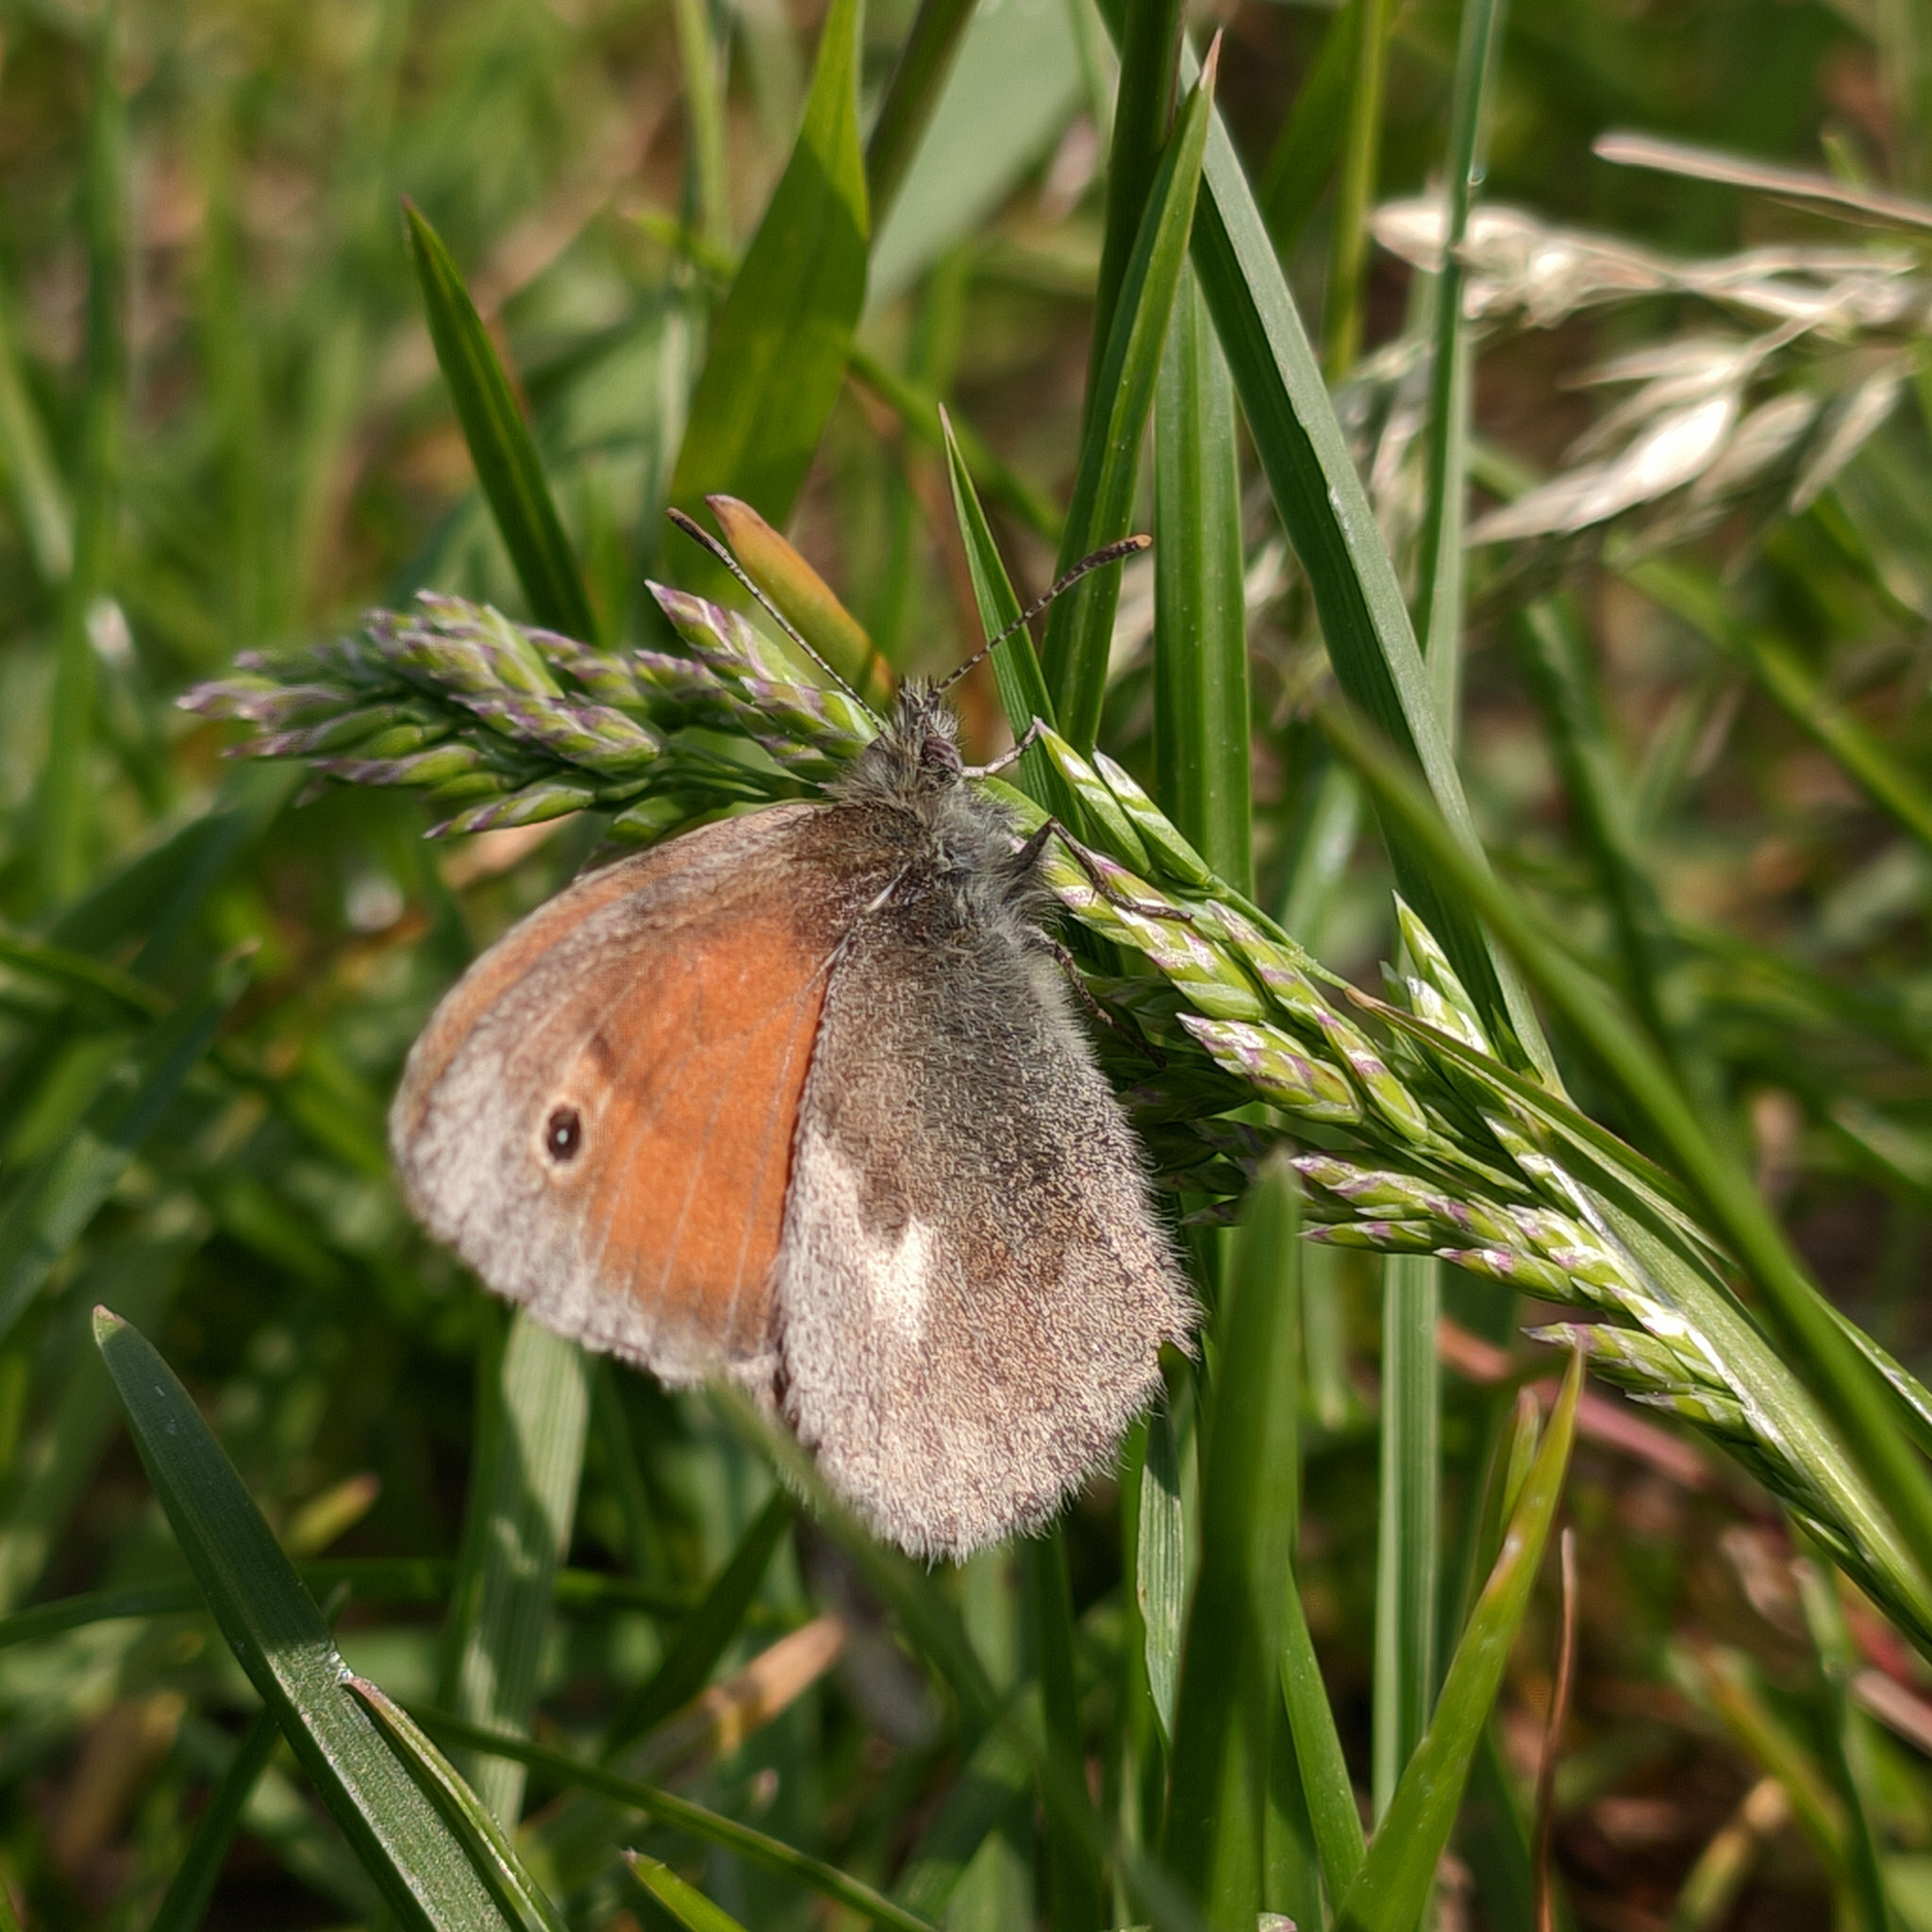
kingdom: Animalia
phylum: Arthropoda
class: Insecta
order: Lepidoptera
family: Nymphalidae
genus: Coenonympha
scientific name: Coenonympha pamphilus
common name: Small heath
